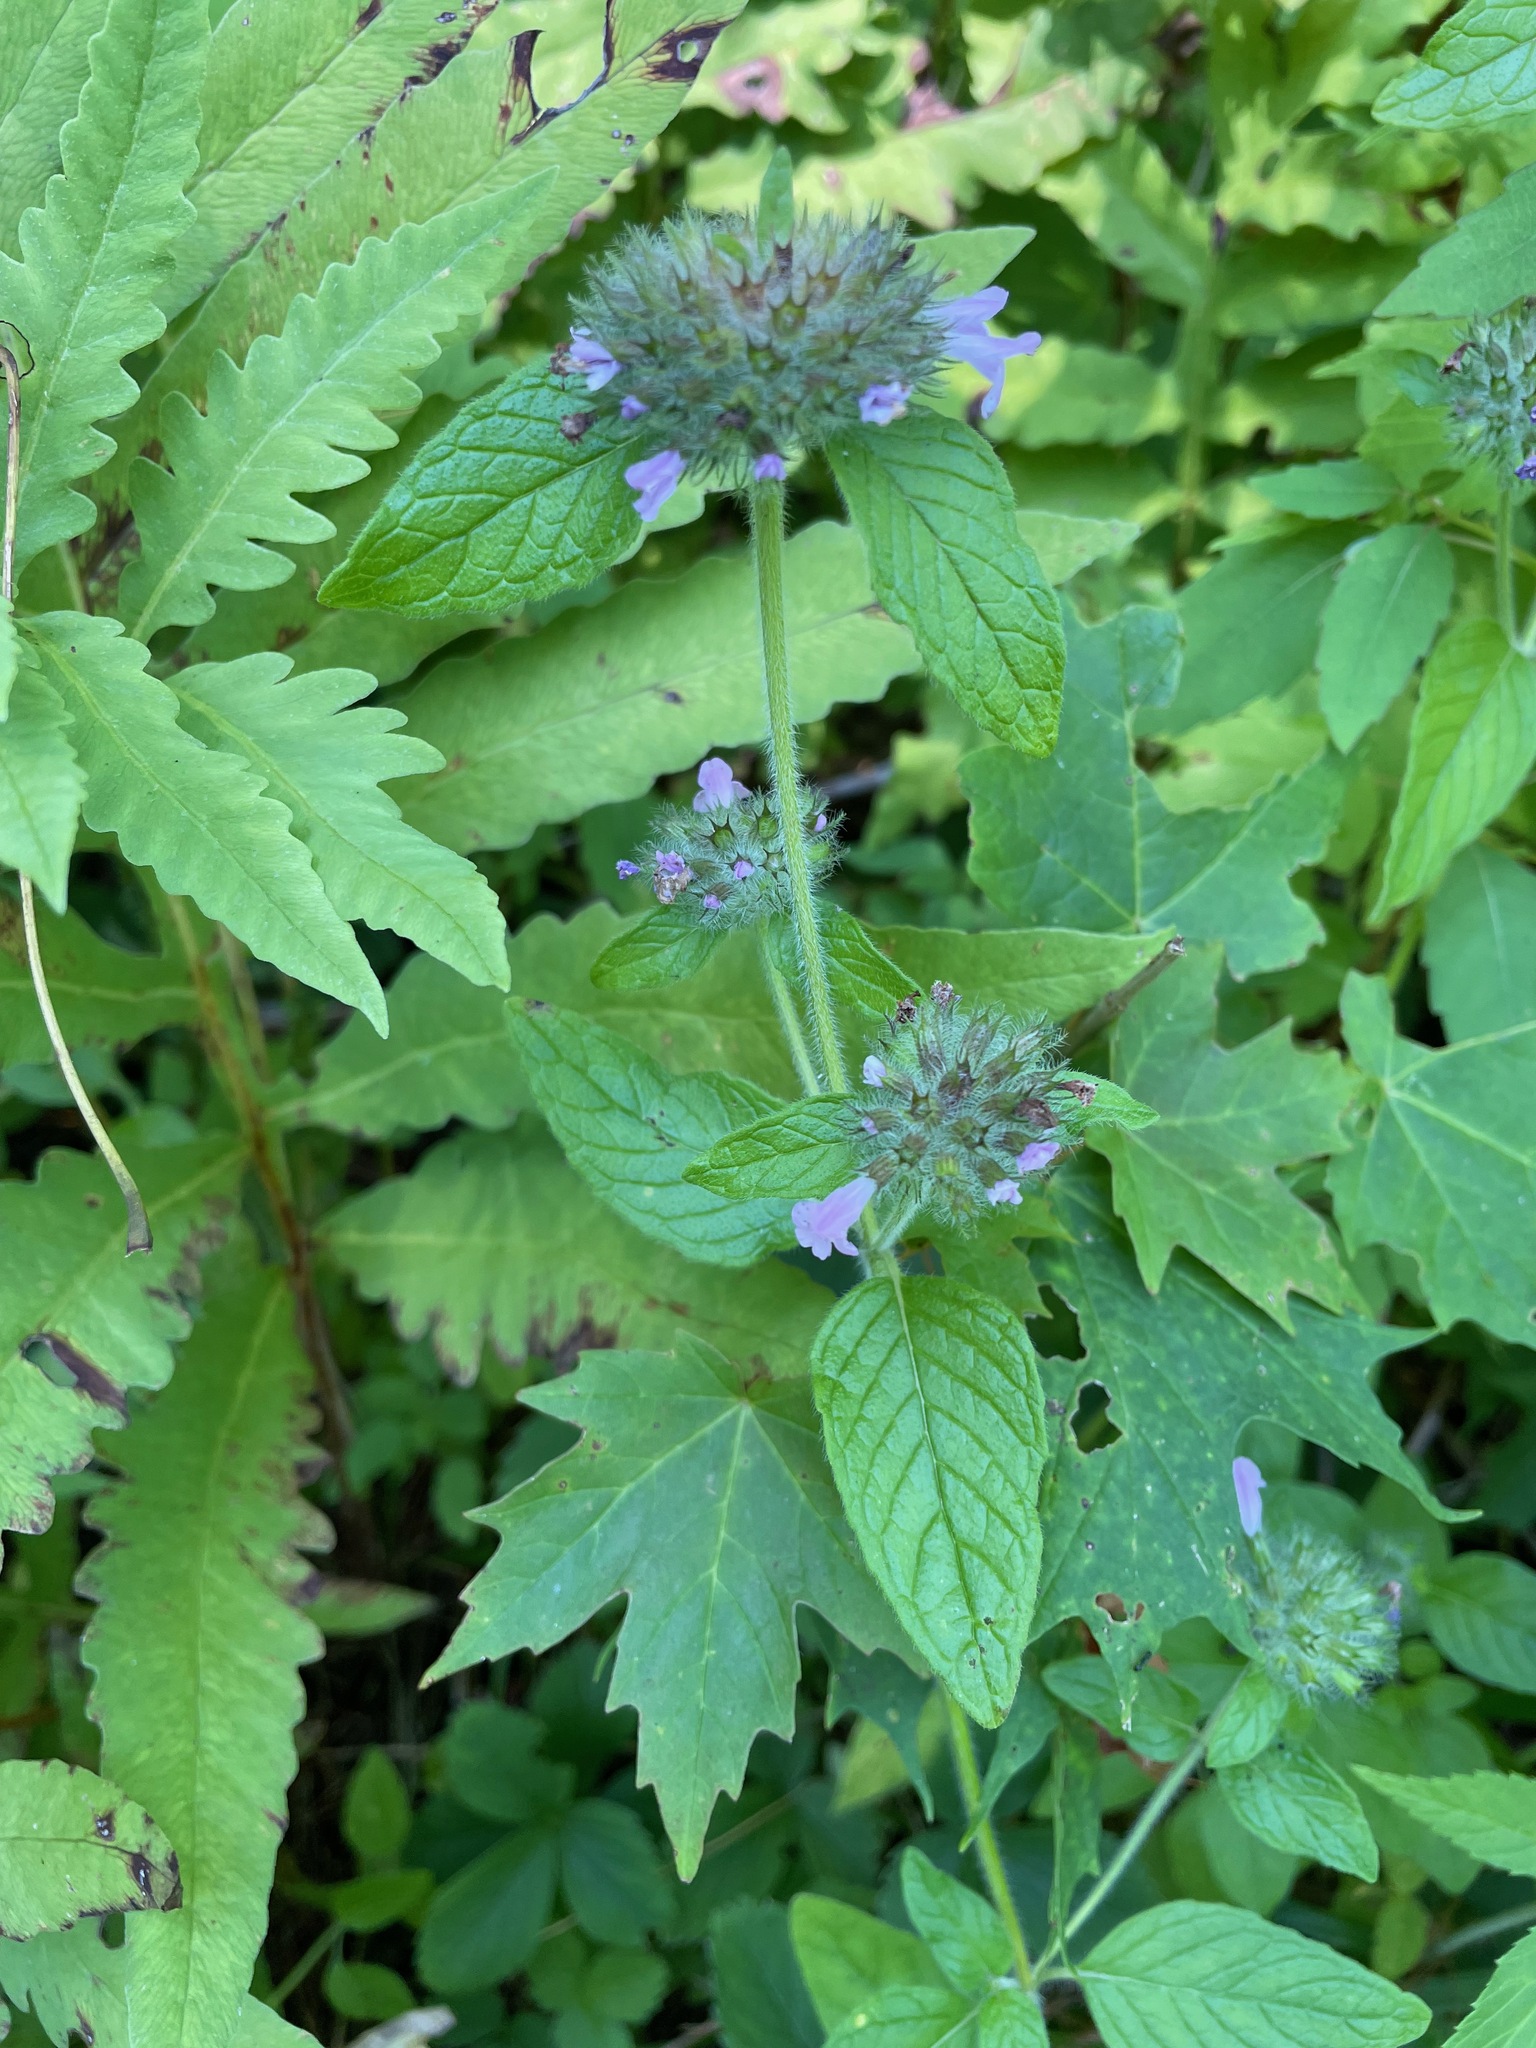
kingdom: Plantae
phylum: Tracheophyta
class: Magnoliopsida
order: Lamiales
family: Lamiaceae
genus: Clinopodium
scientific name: Clinopodium vulgare
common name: Wild basil
